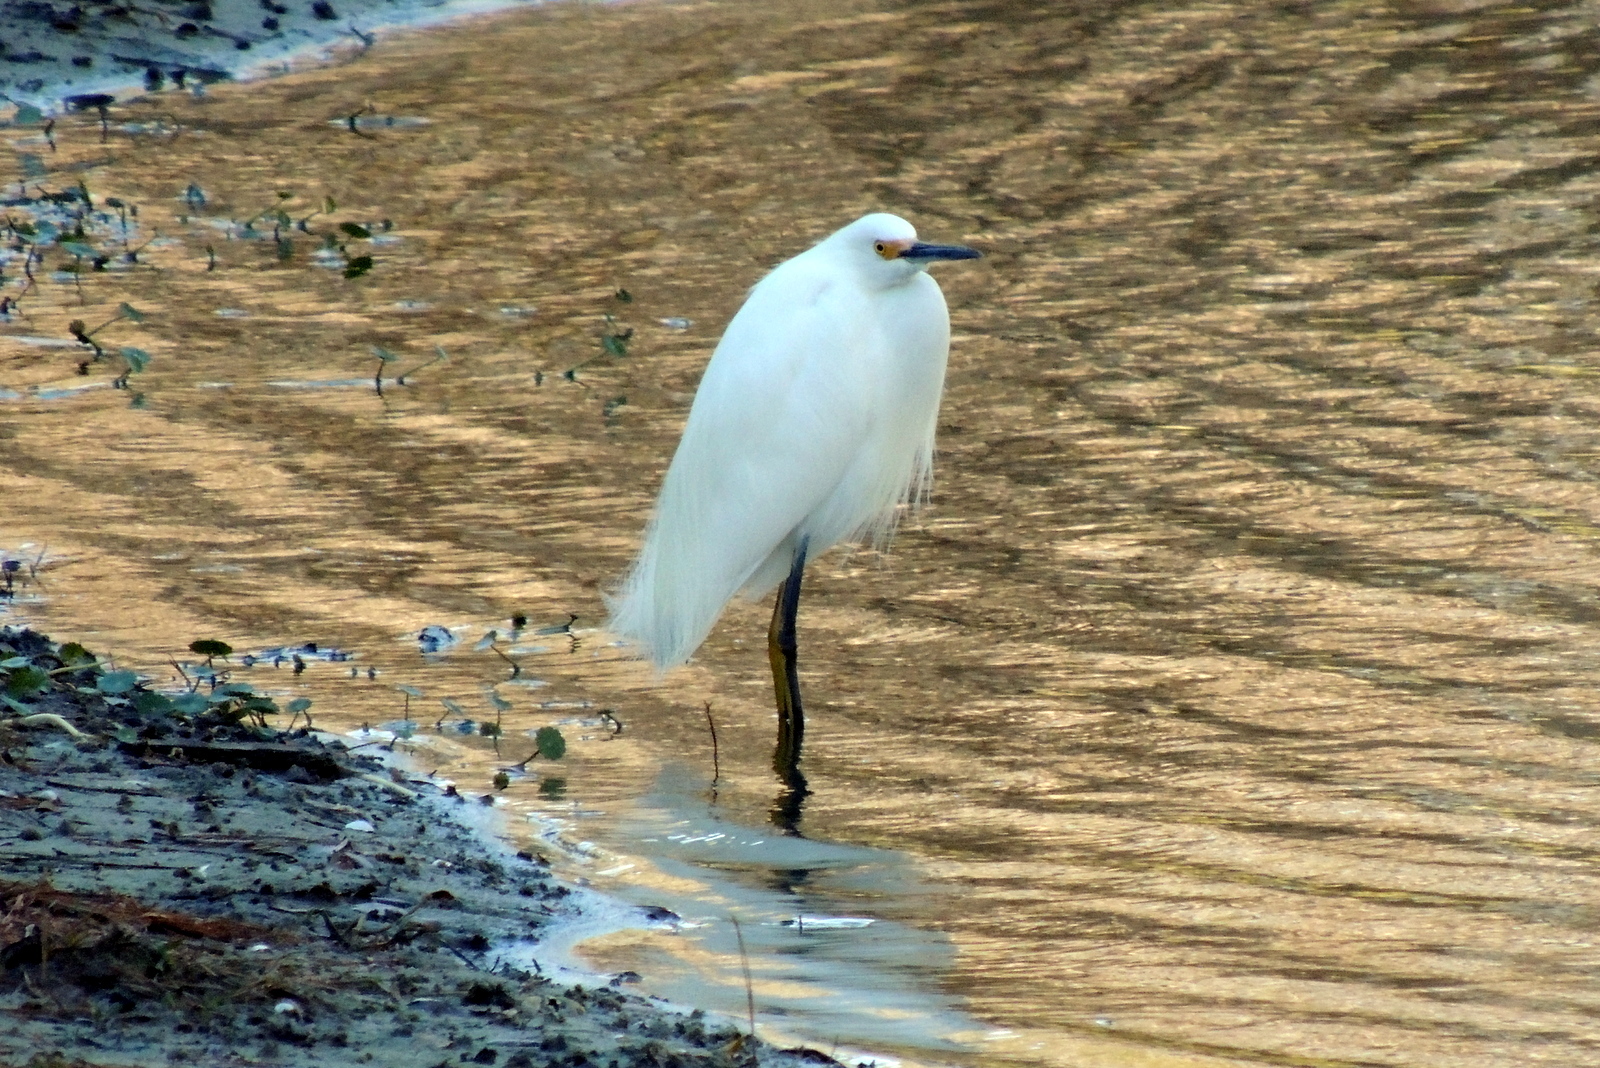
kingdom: Animalia
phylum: Chordata
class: Aves
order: Pelecaniformes
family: Ardeidae
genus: Egretta
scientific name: Egretta thula
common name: Snowy egret
